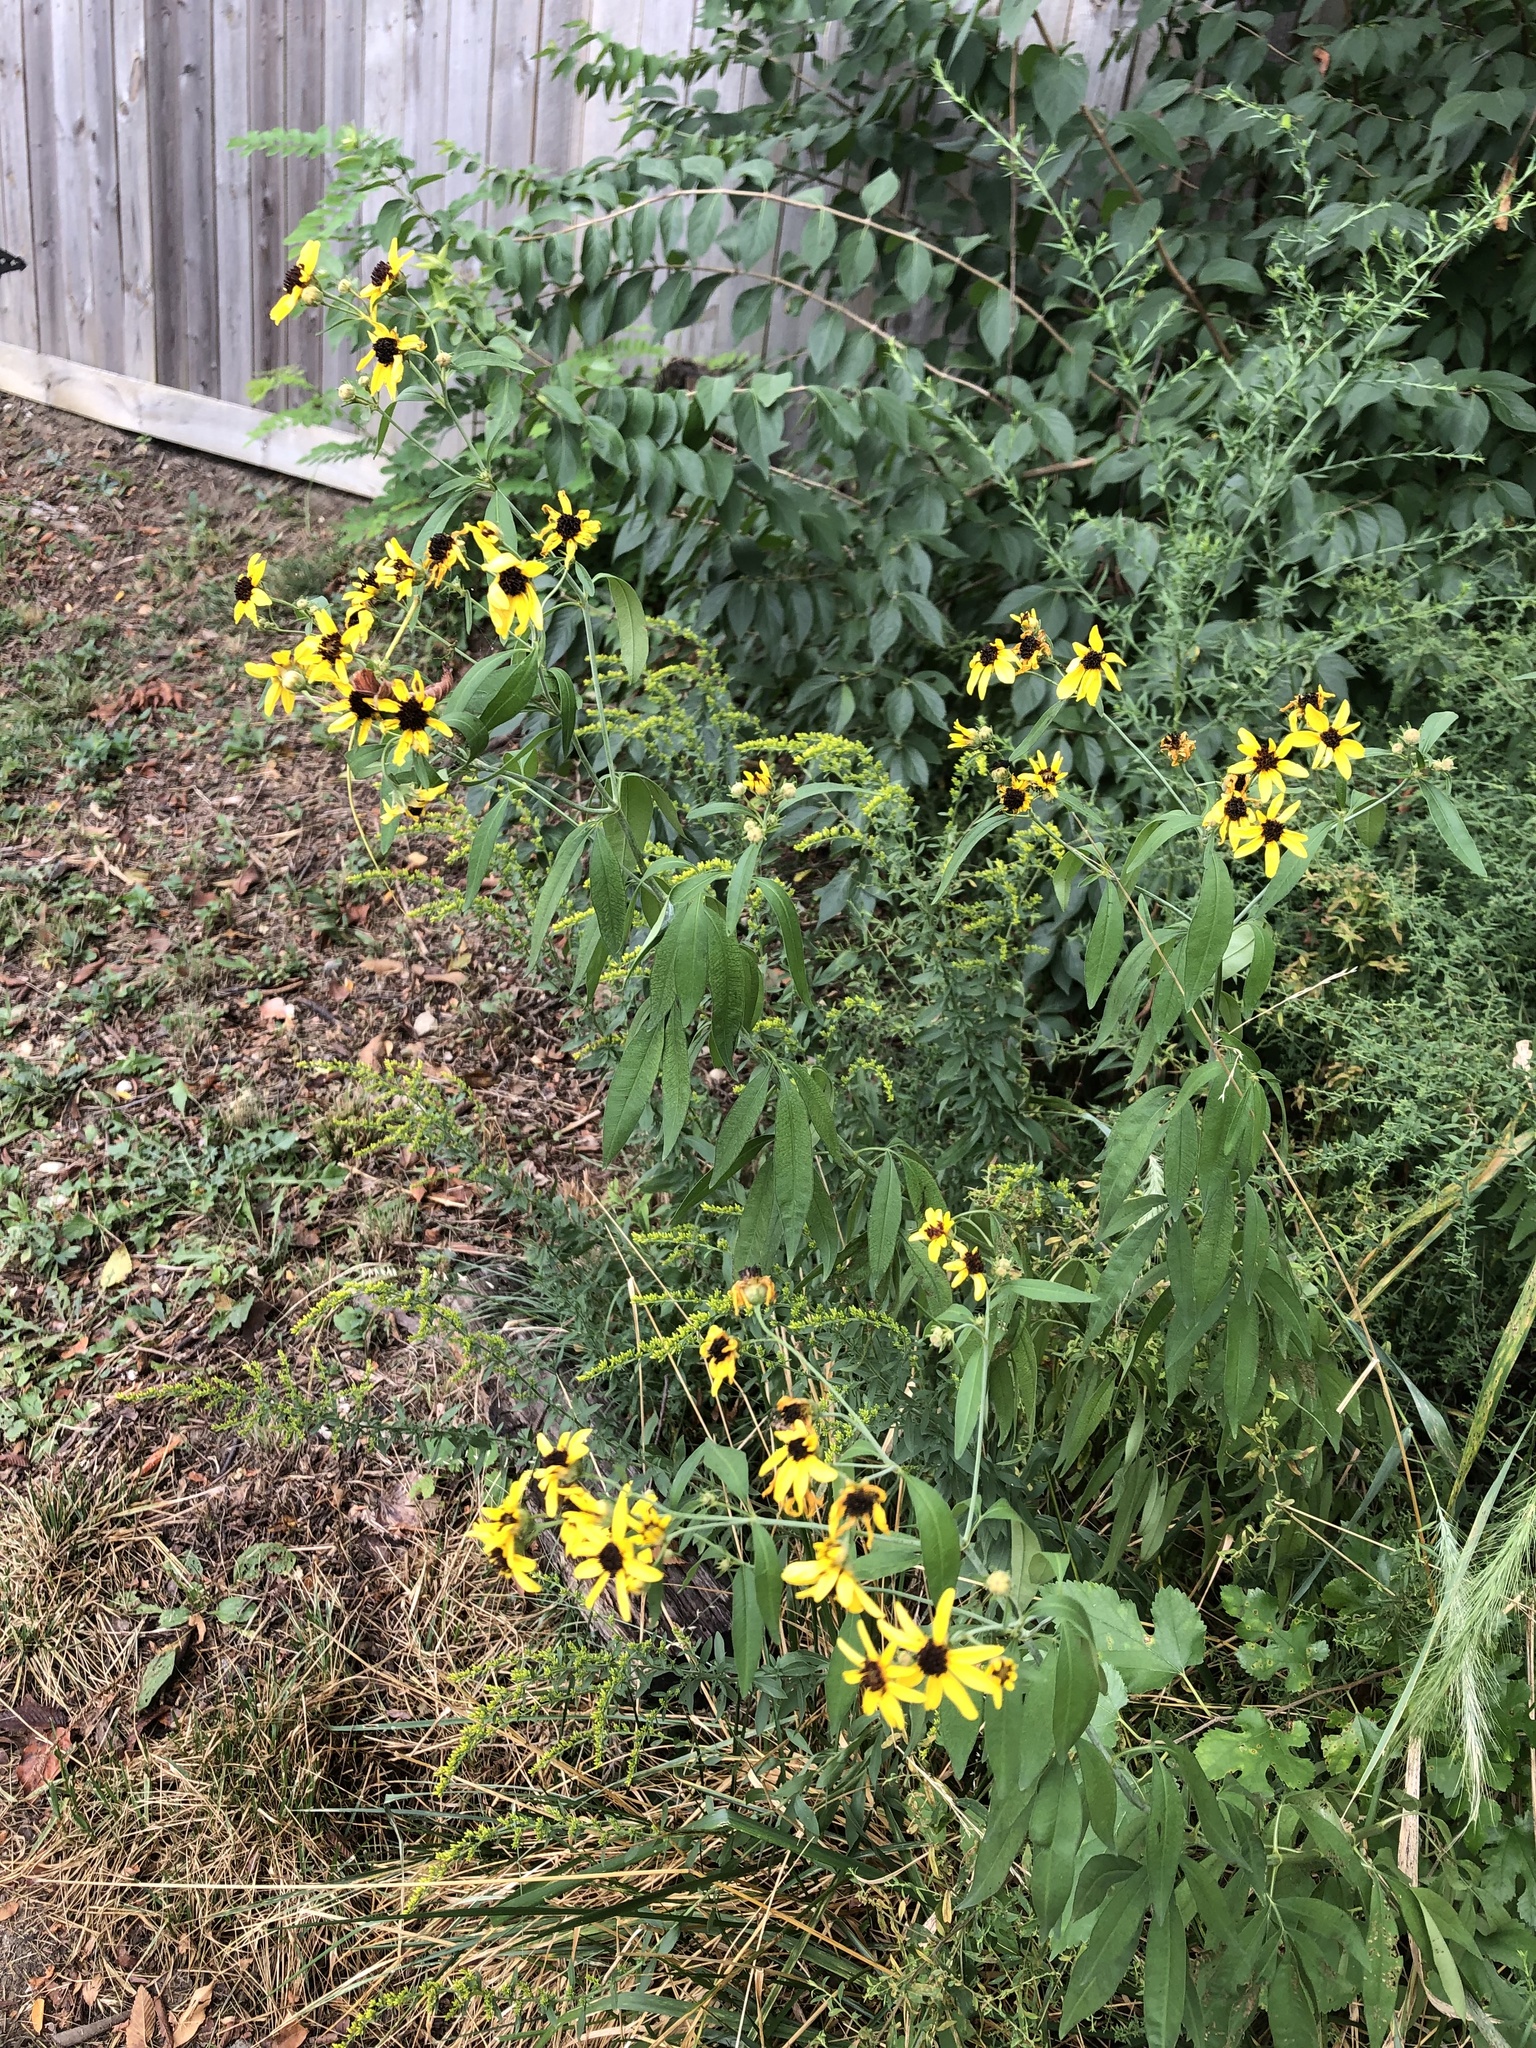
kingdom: Plantae
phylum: Tracheophyta
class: Magnoliopsida
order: Asterales
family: Asteraceae
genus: Coreopsis
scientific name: Coreopsis tripteris
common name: Tall coreopsis
